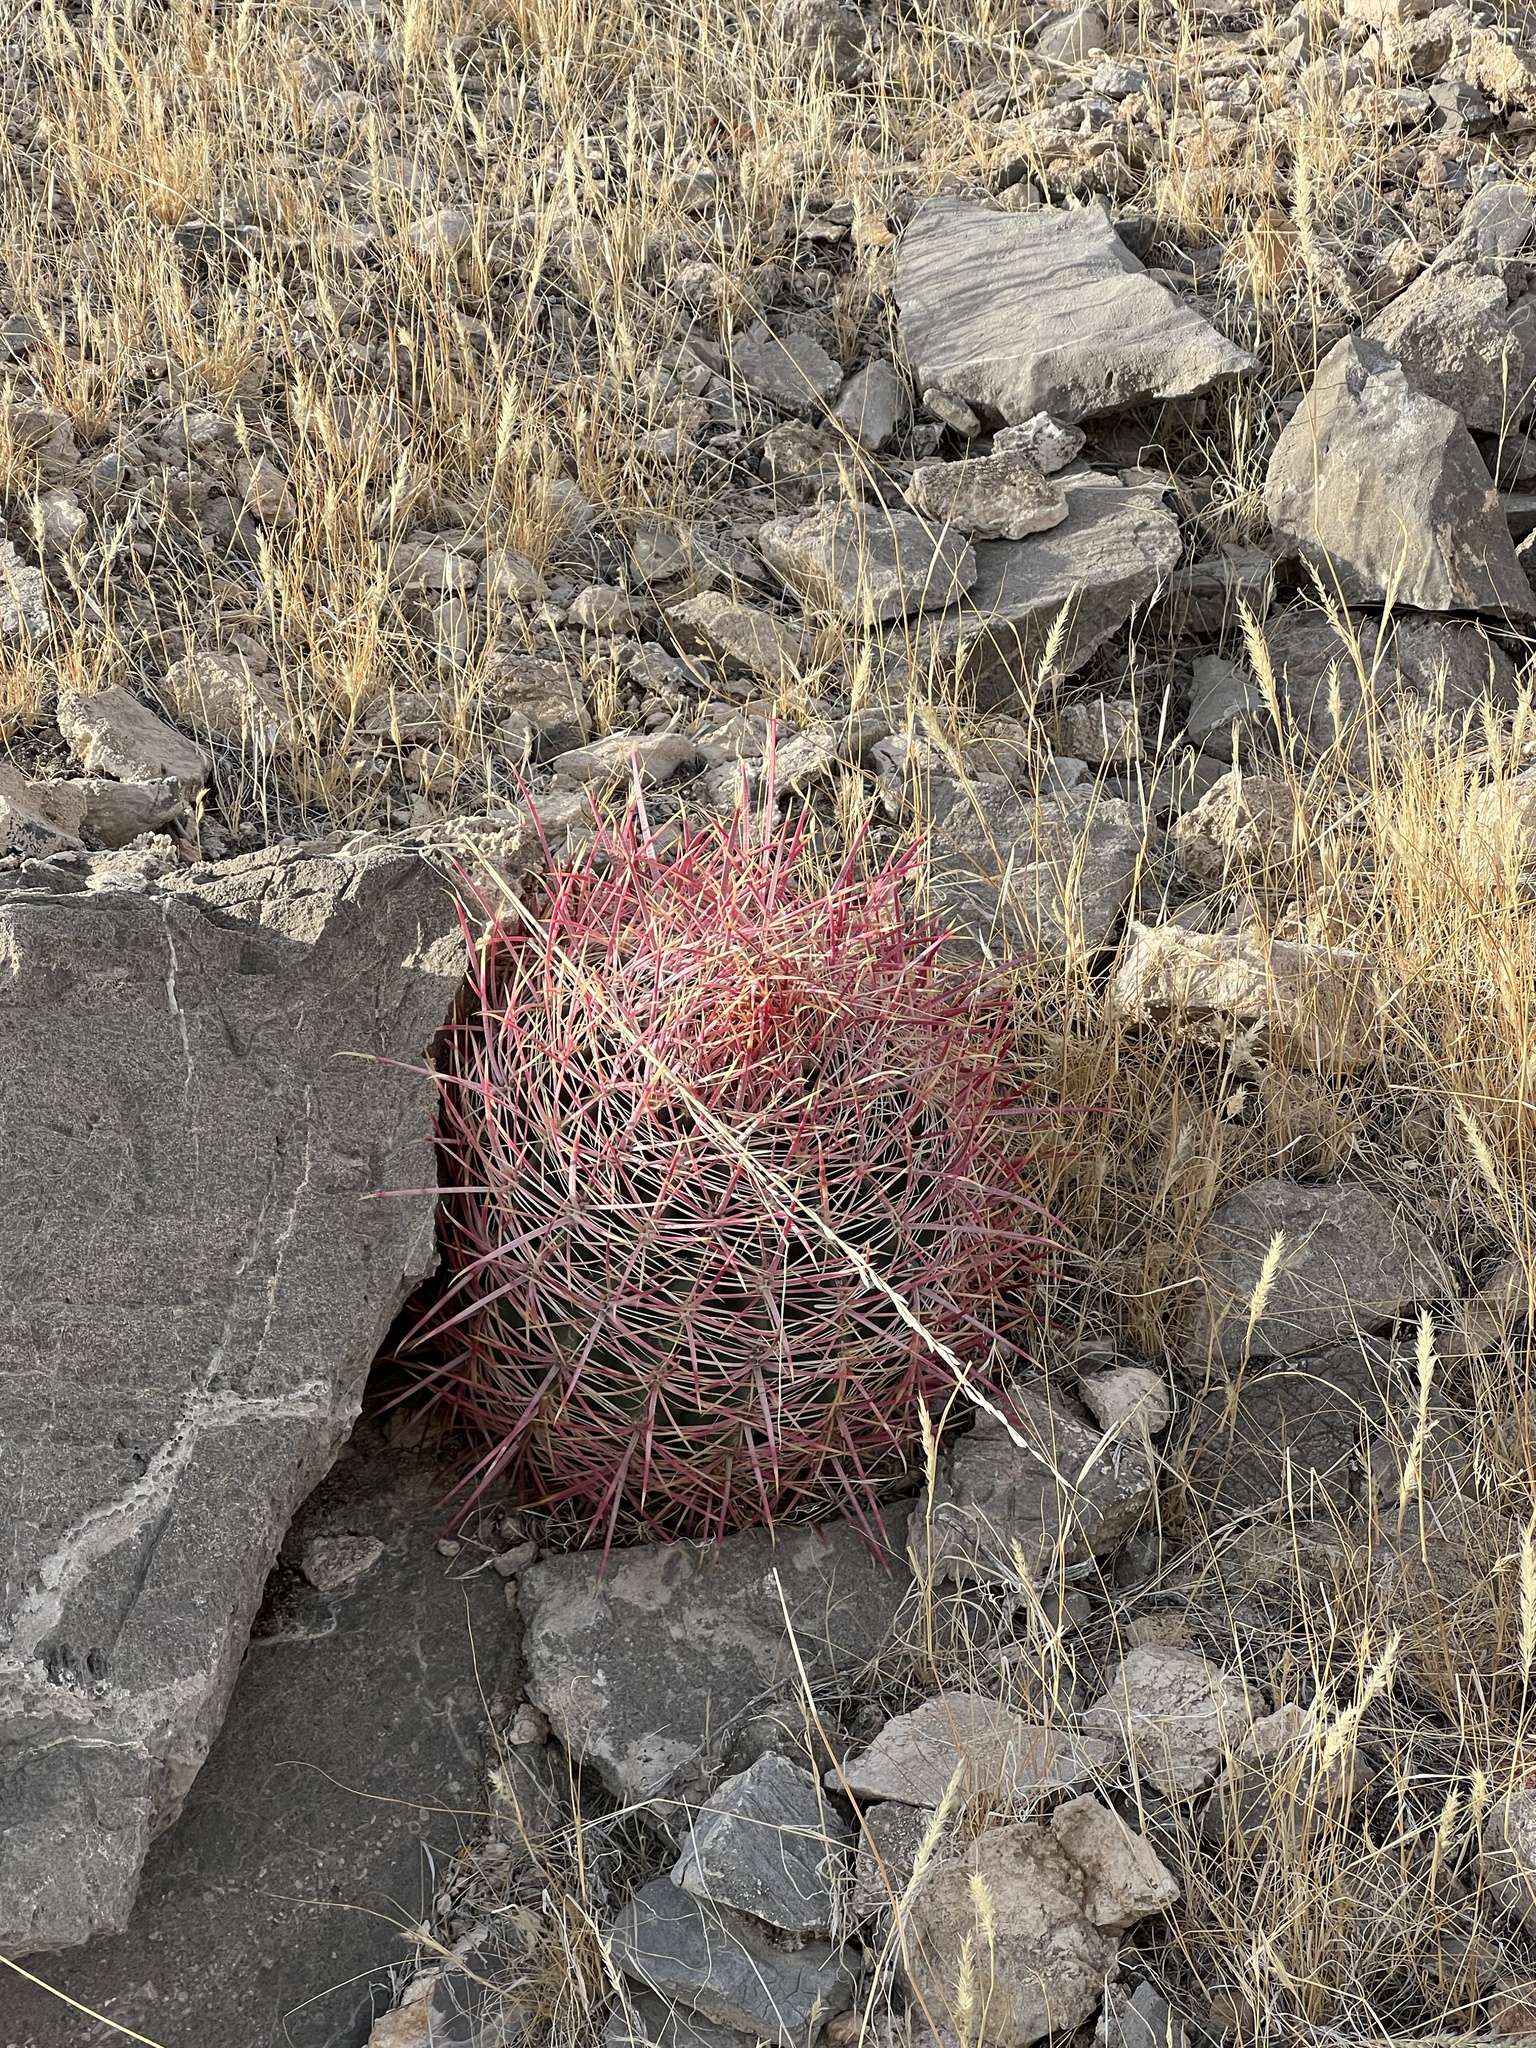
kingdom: Plantae
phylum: Tracheophyta
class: Magnoliopsida
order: Caryophyllales
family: Cactaceae
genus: Ferocactus
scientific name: Ferocactus cylindraceus
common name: California barrel cactus
